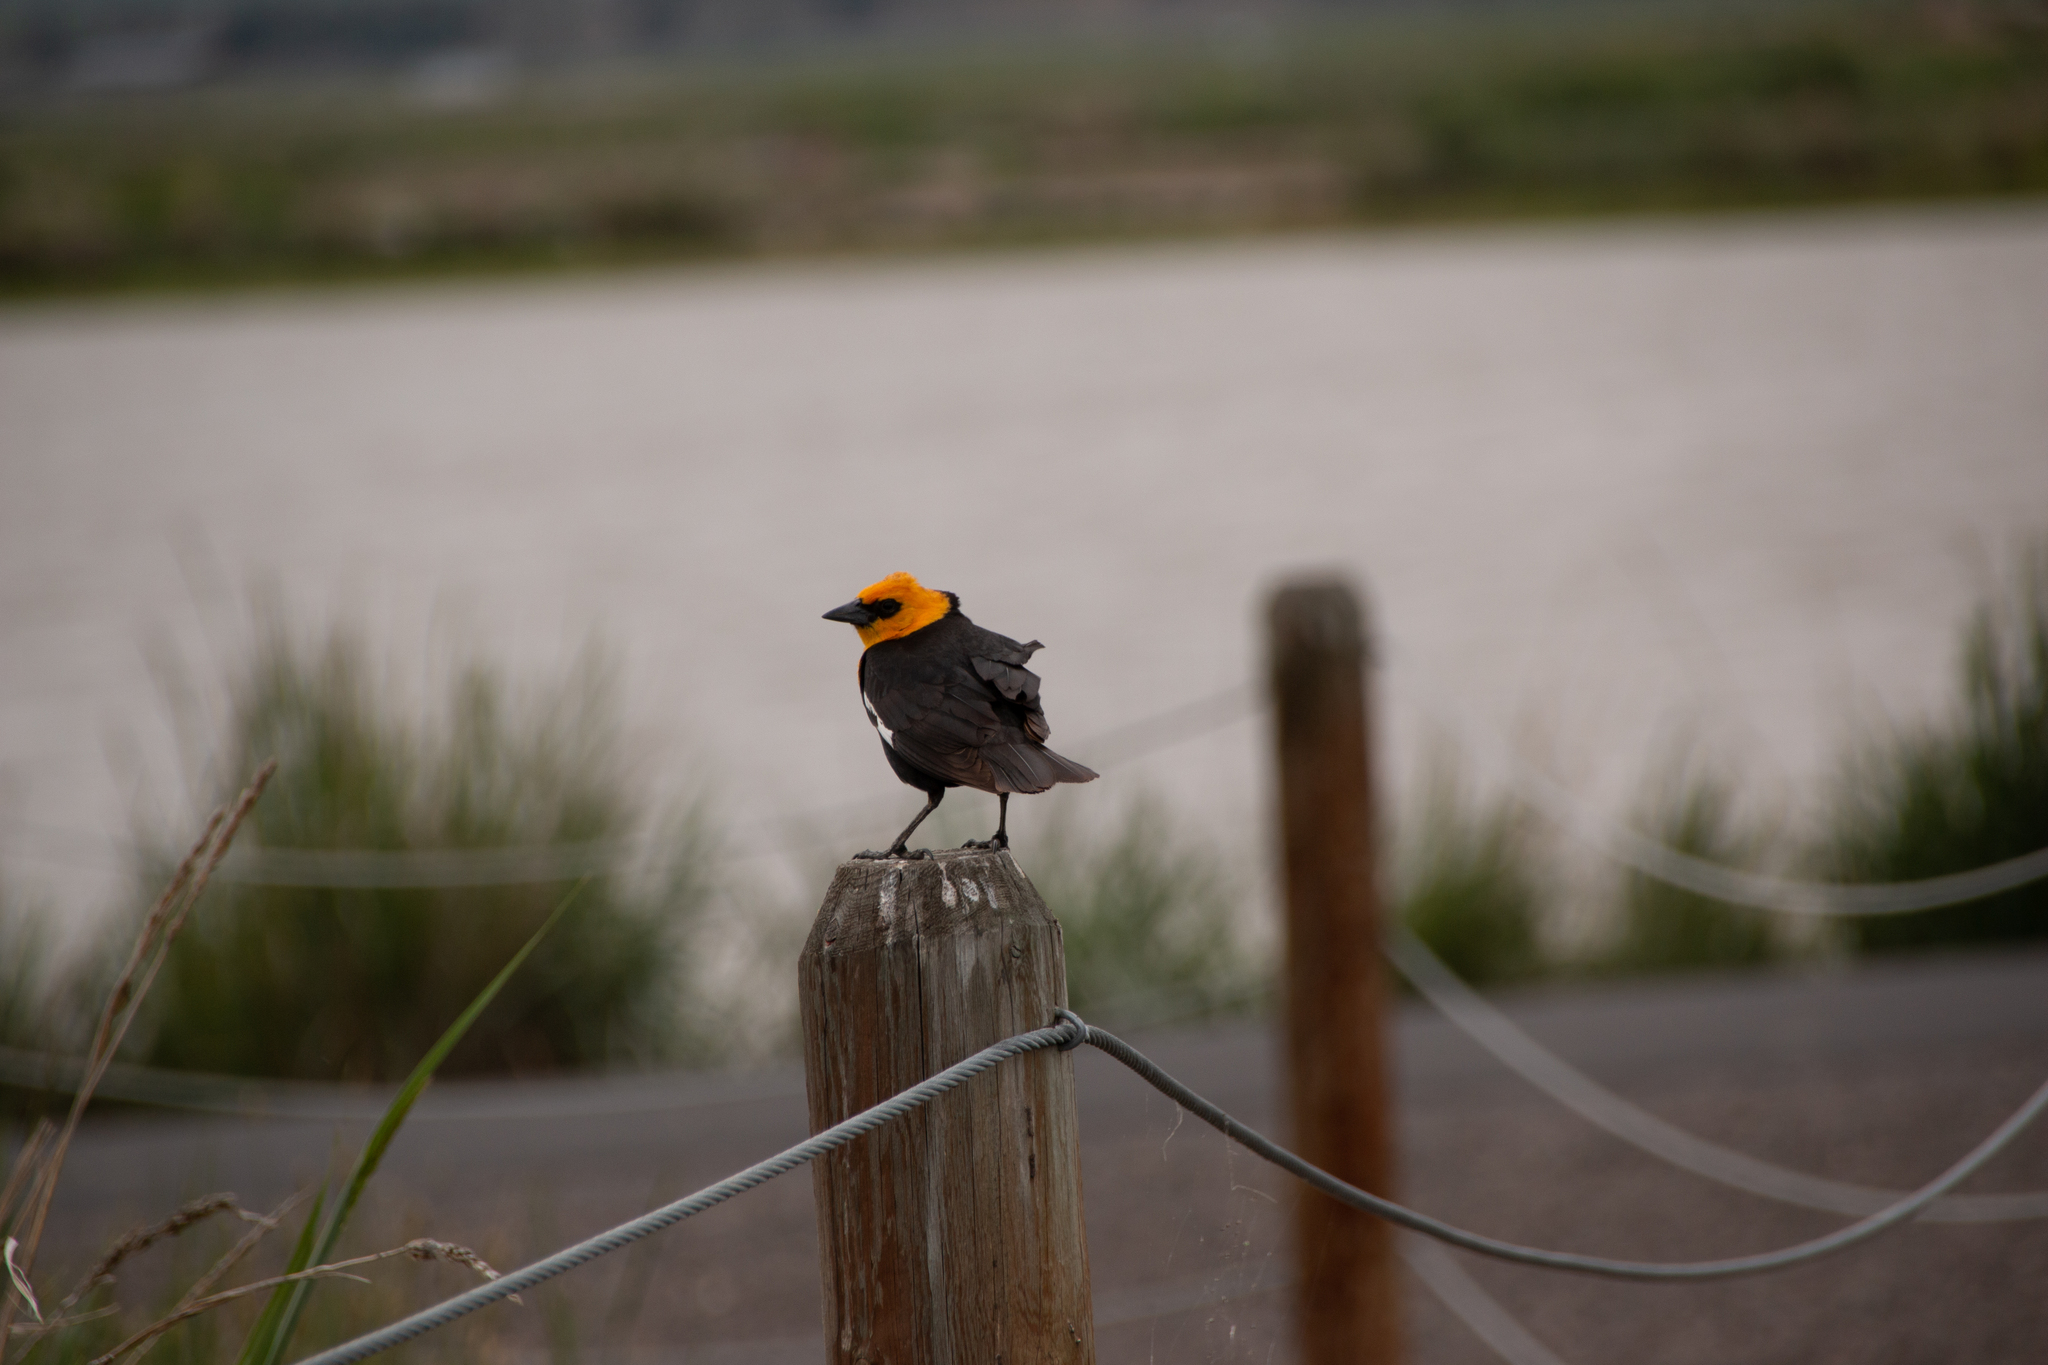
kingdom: Animalia
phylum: Chordata
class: Aves
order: Passeriformes
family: Icteridae
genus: Xanthocephalus
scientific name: Xanthocephalus xanthocephalus
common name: Yellow-headed blackbird
